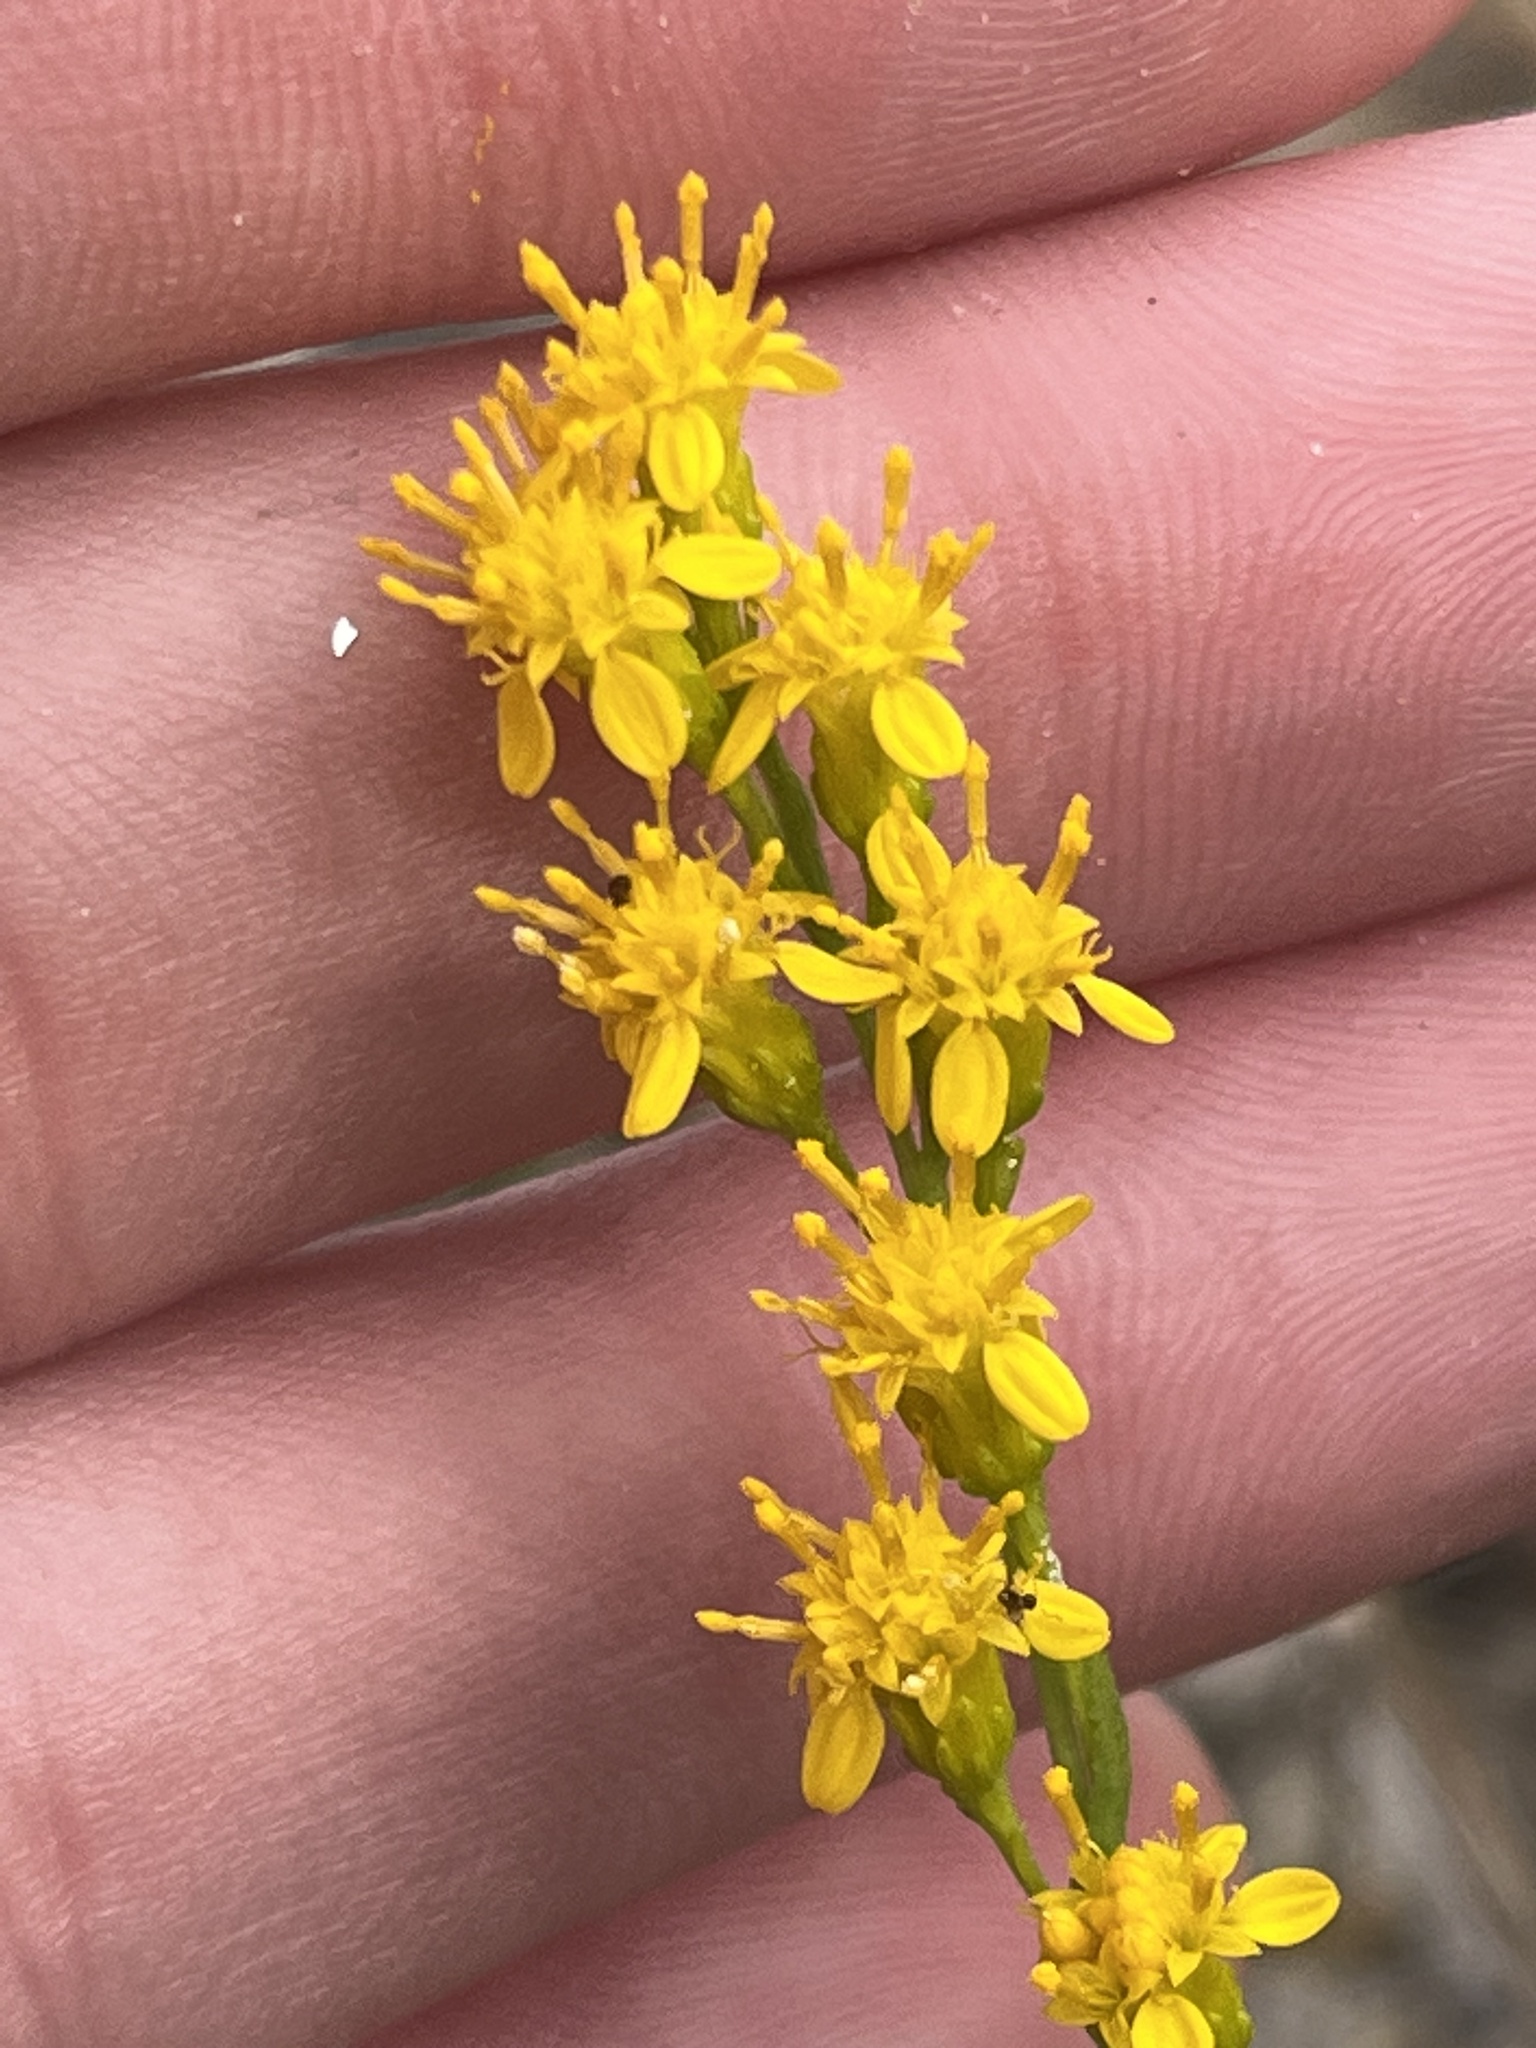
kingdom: Plantae
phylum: Tracheophyta
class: Magnoliopsida
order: Asterales
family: Asteraceae
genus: Solidago
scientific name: Solidago virgata
